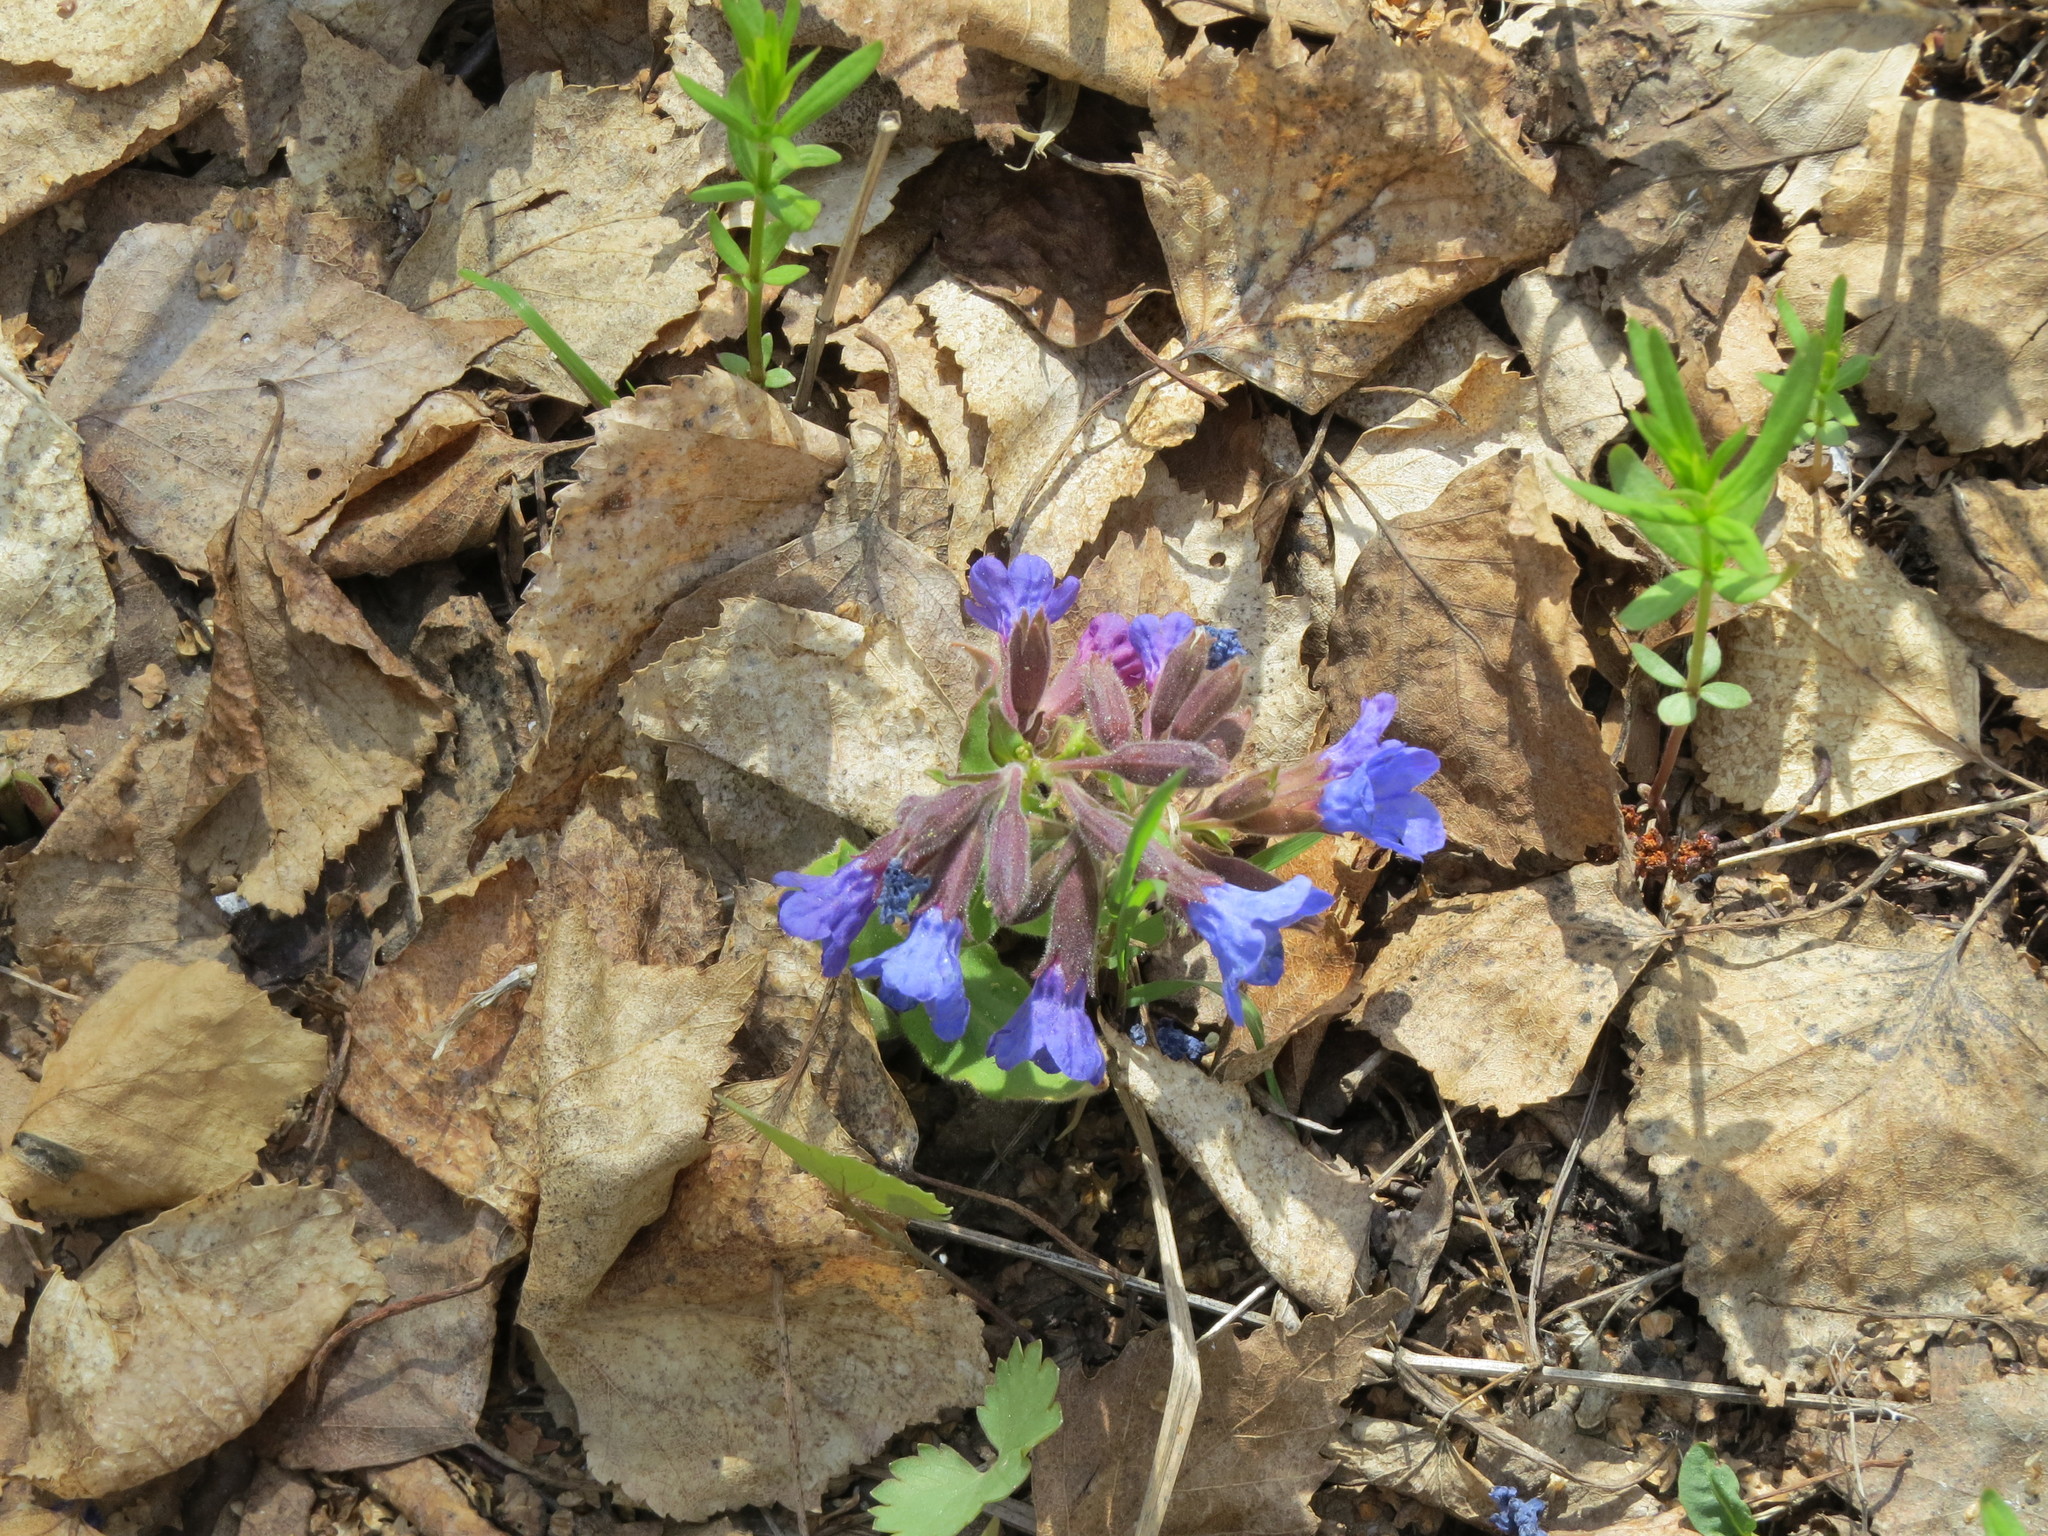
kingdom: Plantae
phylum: Tracheophyta
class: Magnoliopsida
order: Boraginales
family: Boraginaceae
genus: Pulmonaria
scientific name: Pulmonaria mollis
